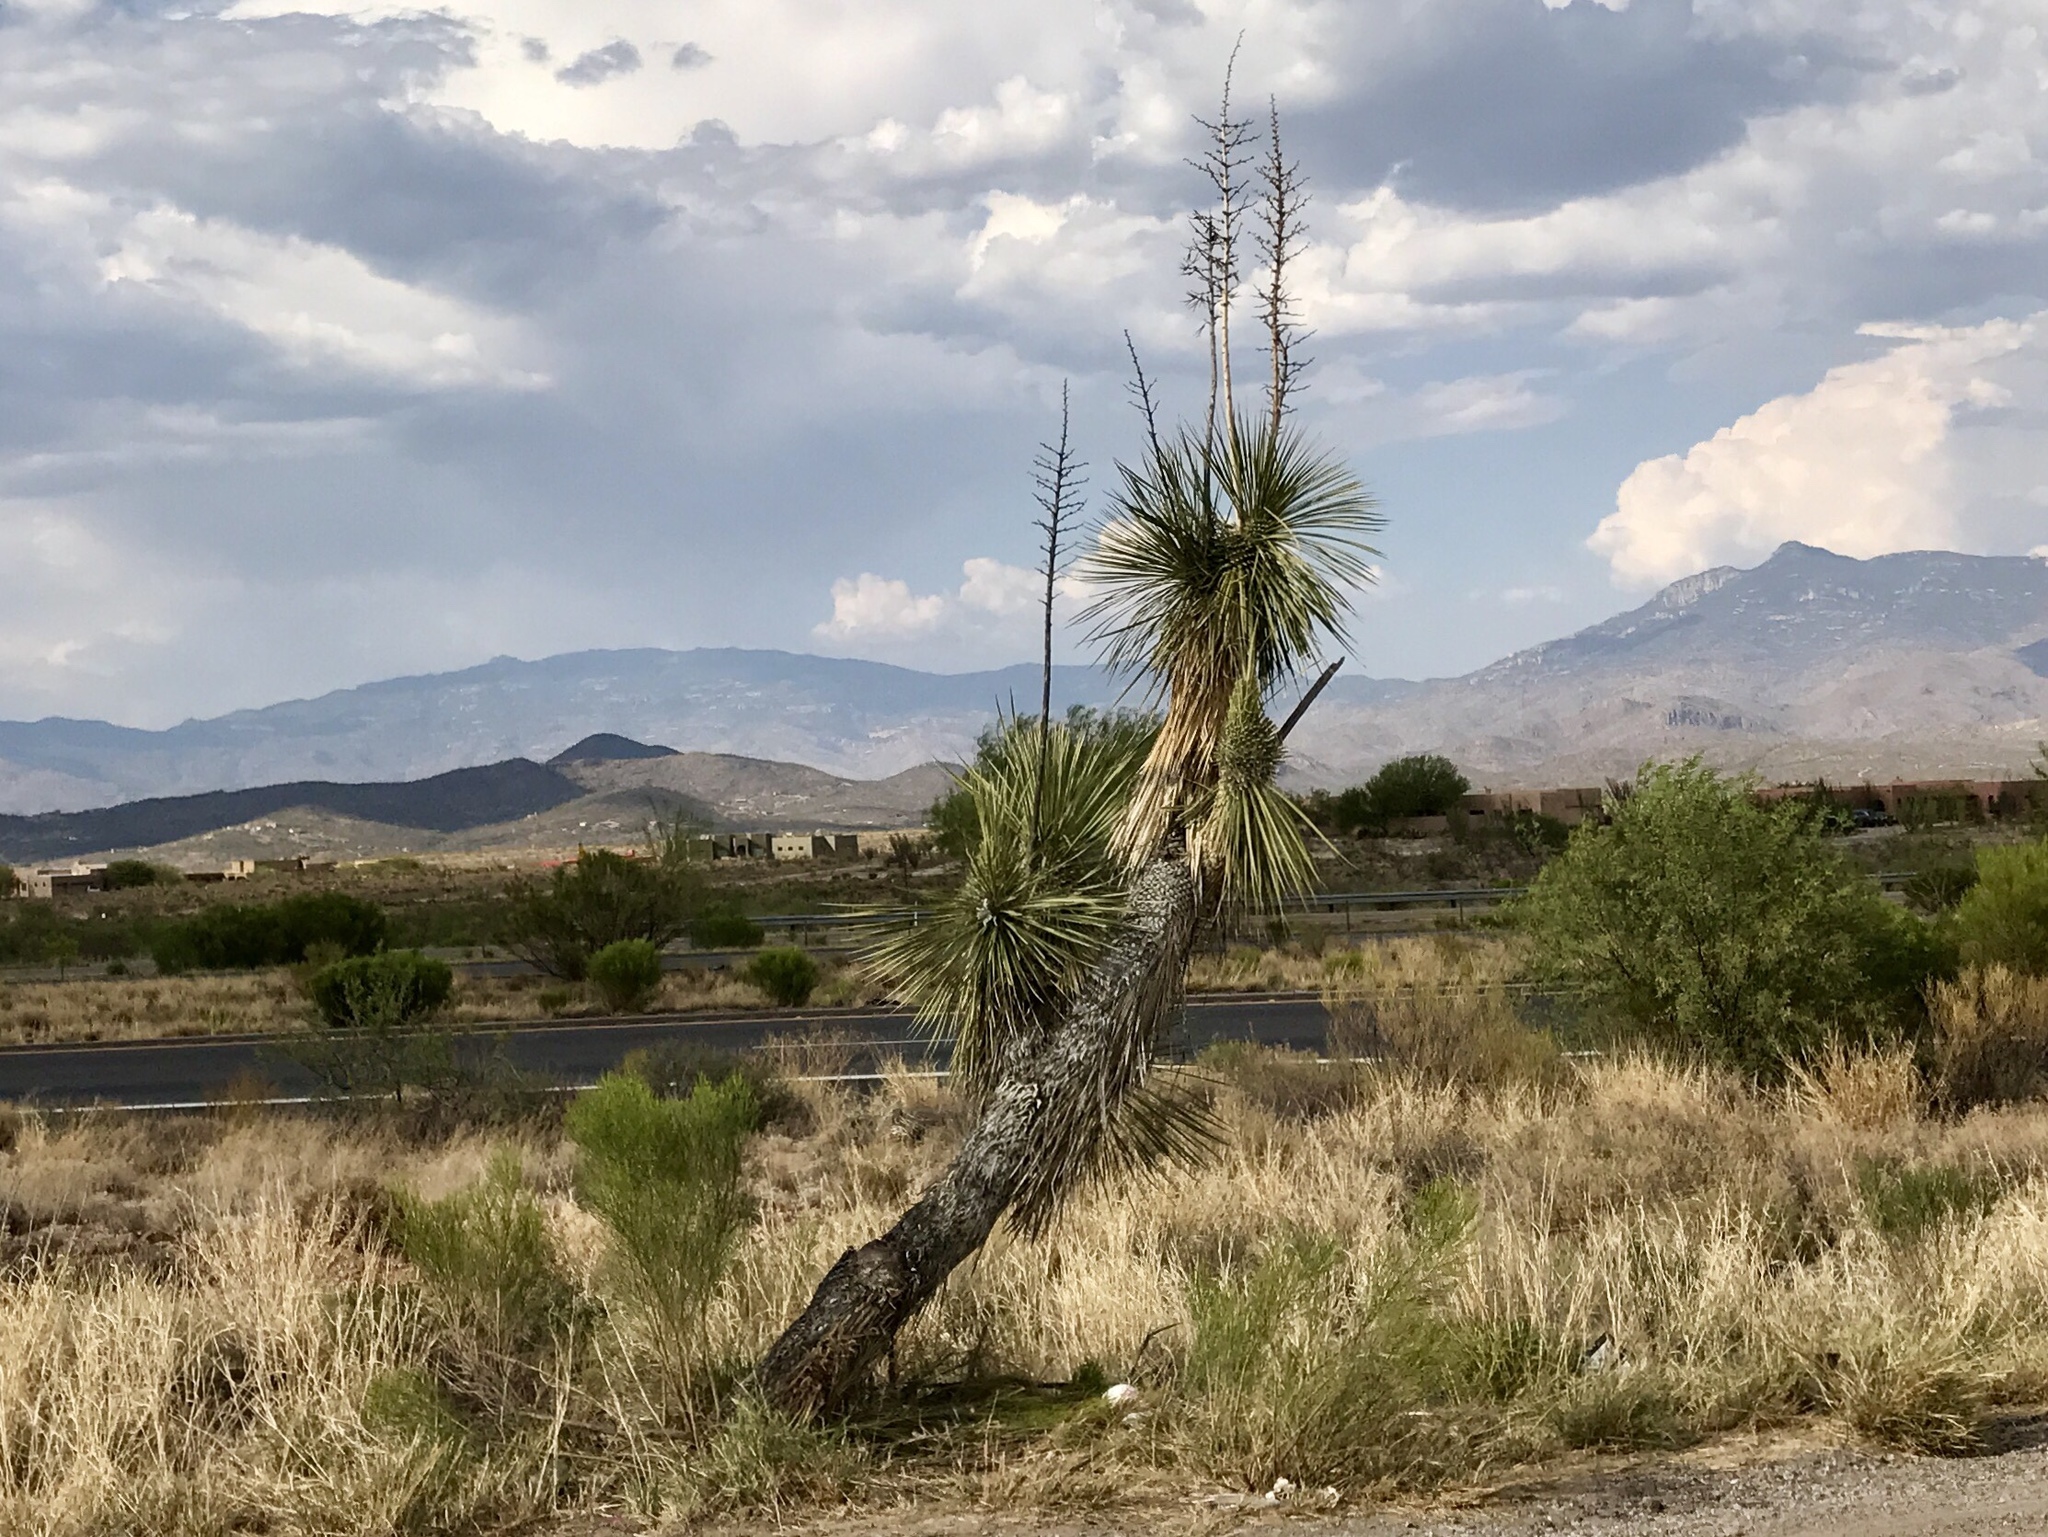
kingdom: Plantae
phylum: Tracheophyta
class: Liliopsida
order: Asparagales
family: Asparagaceae
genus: Yucca
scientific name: Yucca elata
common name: Palmella
